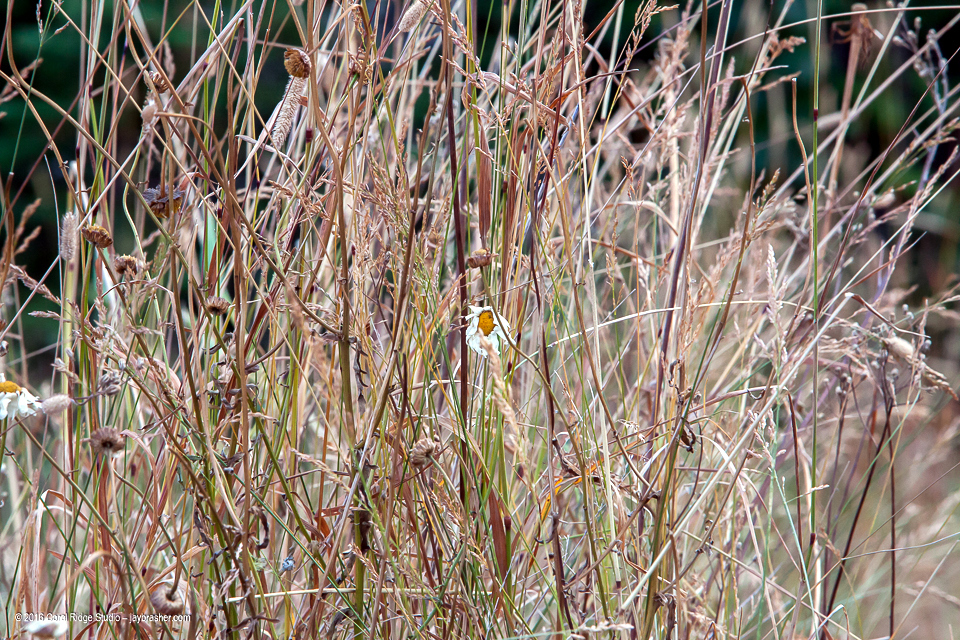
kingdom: Plantae
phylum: Tracheophyta
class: Magnoliopsida
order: Asterales
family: Asteraceae
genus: Leucanthemum
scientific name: Leucanthemum vulgare
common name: Oxeye daisy
